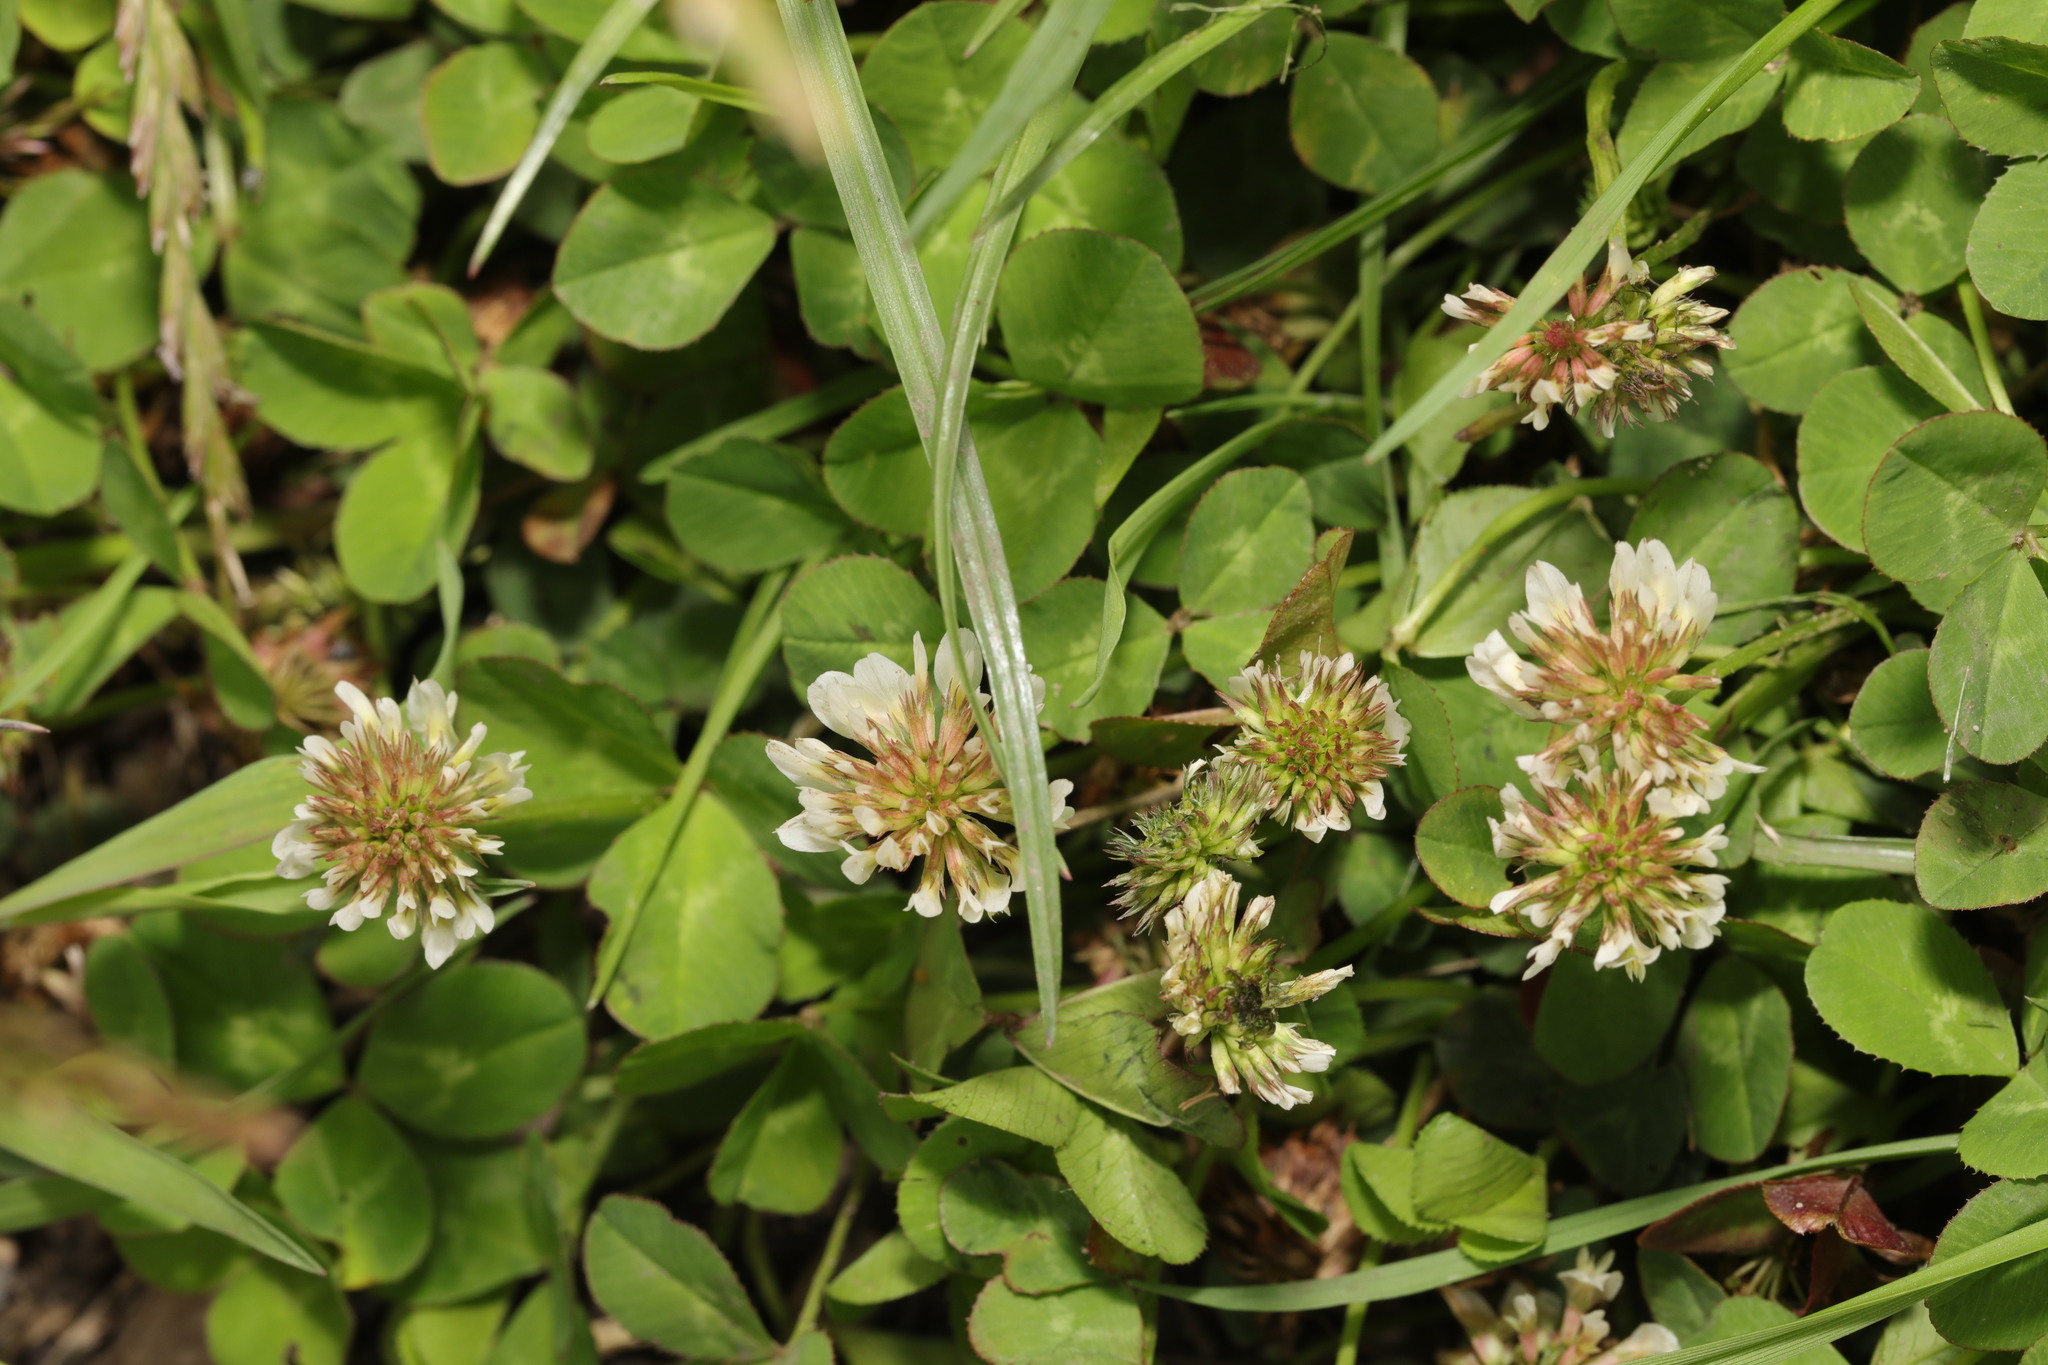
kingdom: Plantae
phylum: Tracheophyta
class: Magnoliopsida
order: Fabales
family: Fabaceae
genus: Trifolium
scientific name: Trifolium repens
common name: White clover
